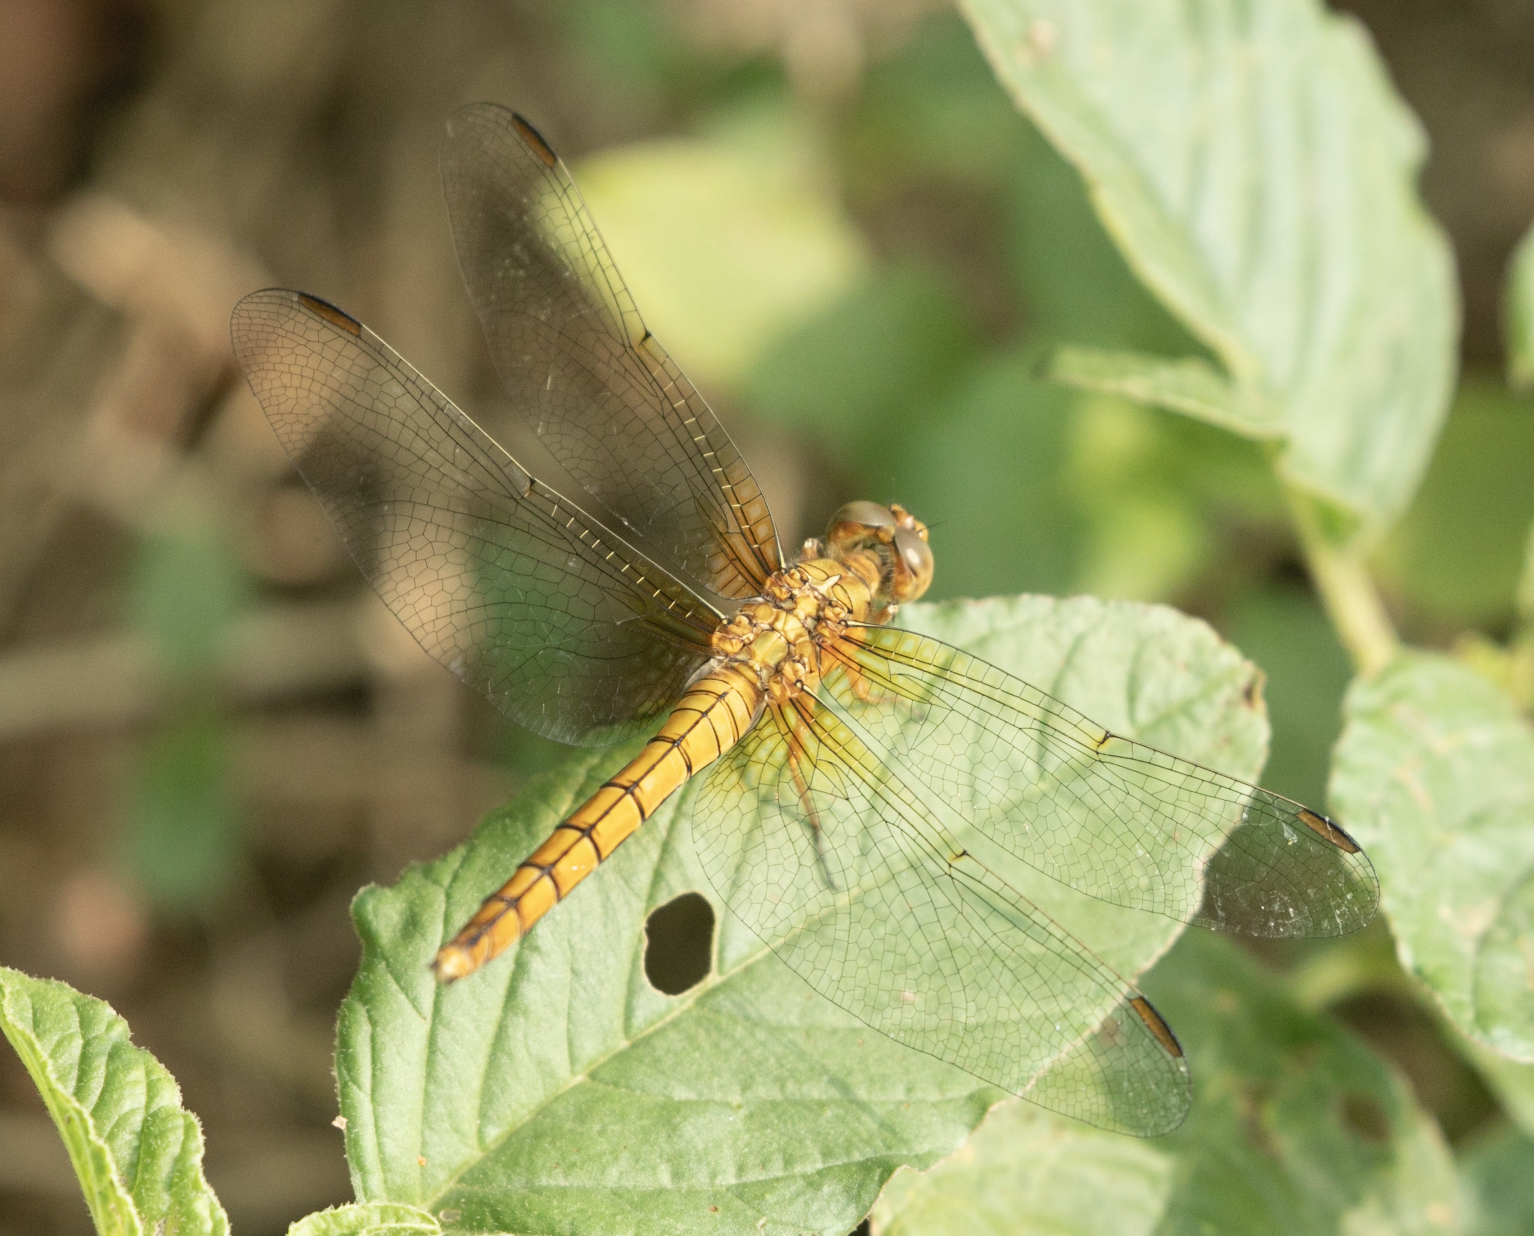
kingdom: Animalia
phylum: Arthropoda
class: Insecta
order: Odonata
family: Libellulidae
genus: Orthetrum
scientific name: Orthetrum coerulescens
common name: Keeled skimmer
